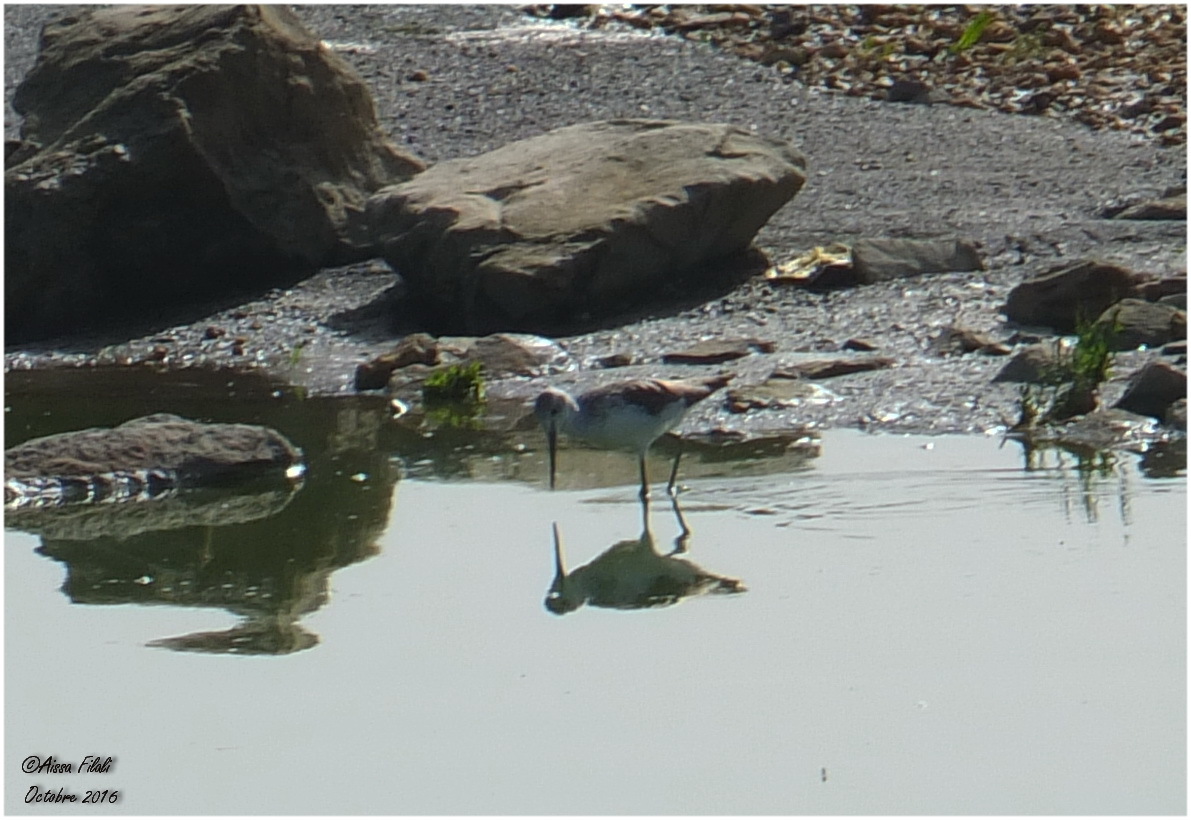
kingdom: Animalia
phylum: Chordata
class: Aves
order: Charadriiformes
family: Scolopacidae
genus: Tringa
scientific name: Tringa nebularia
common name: Common greenshank
